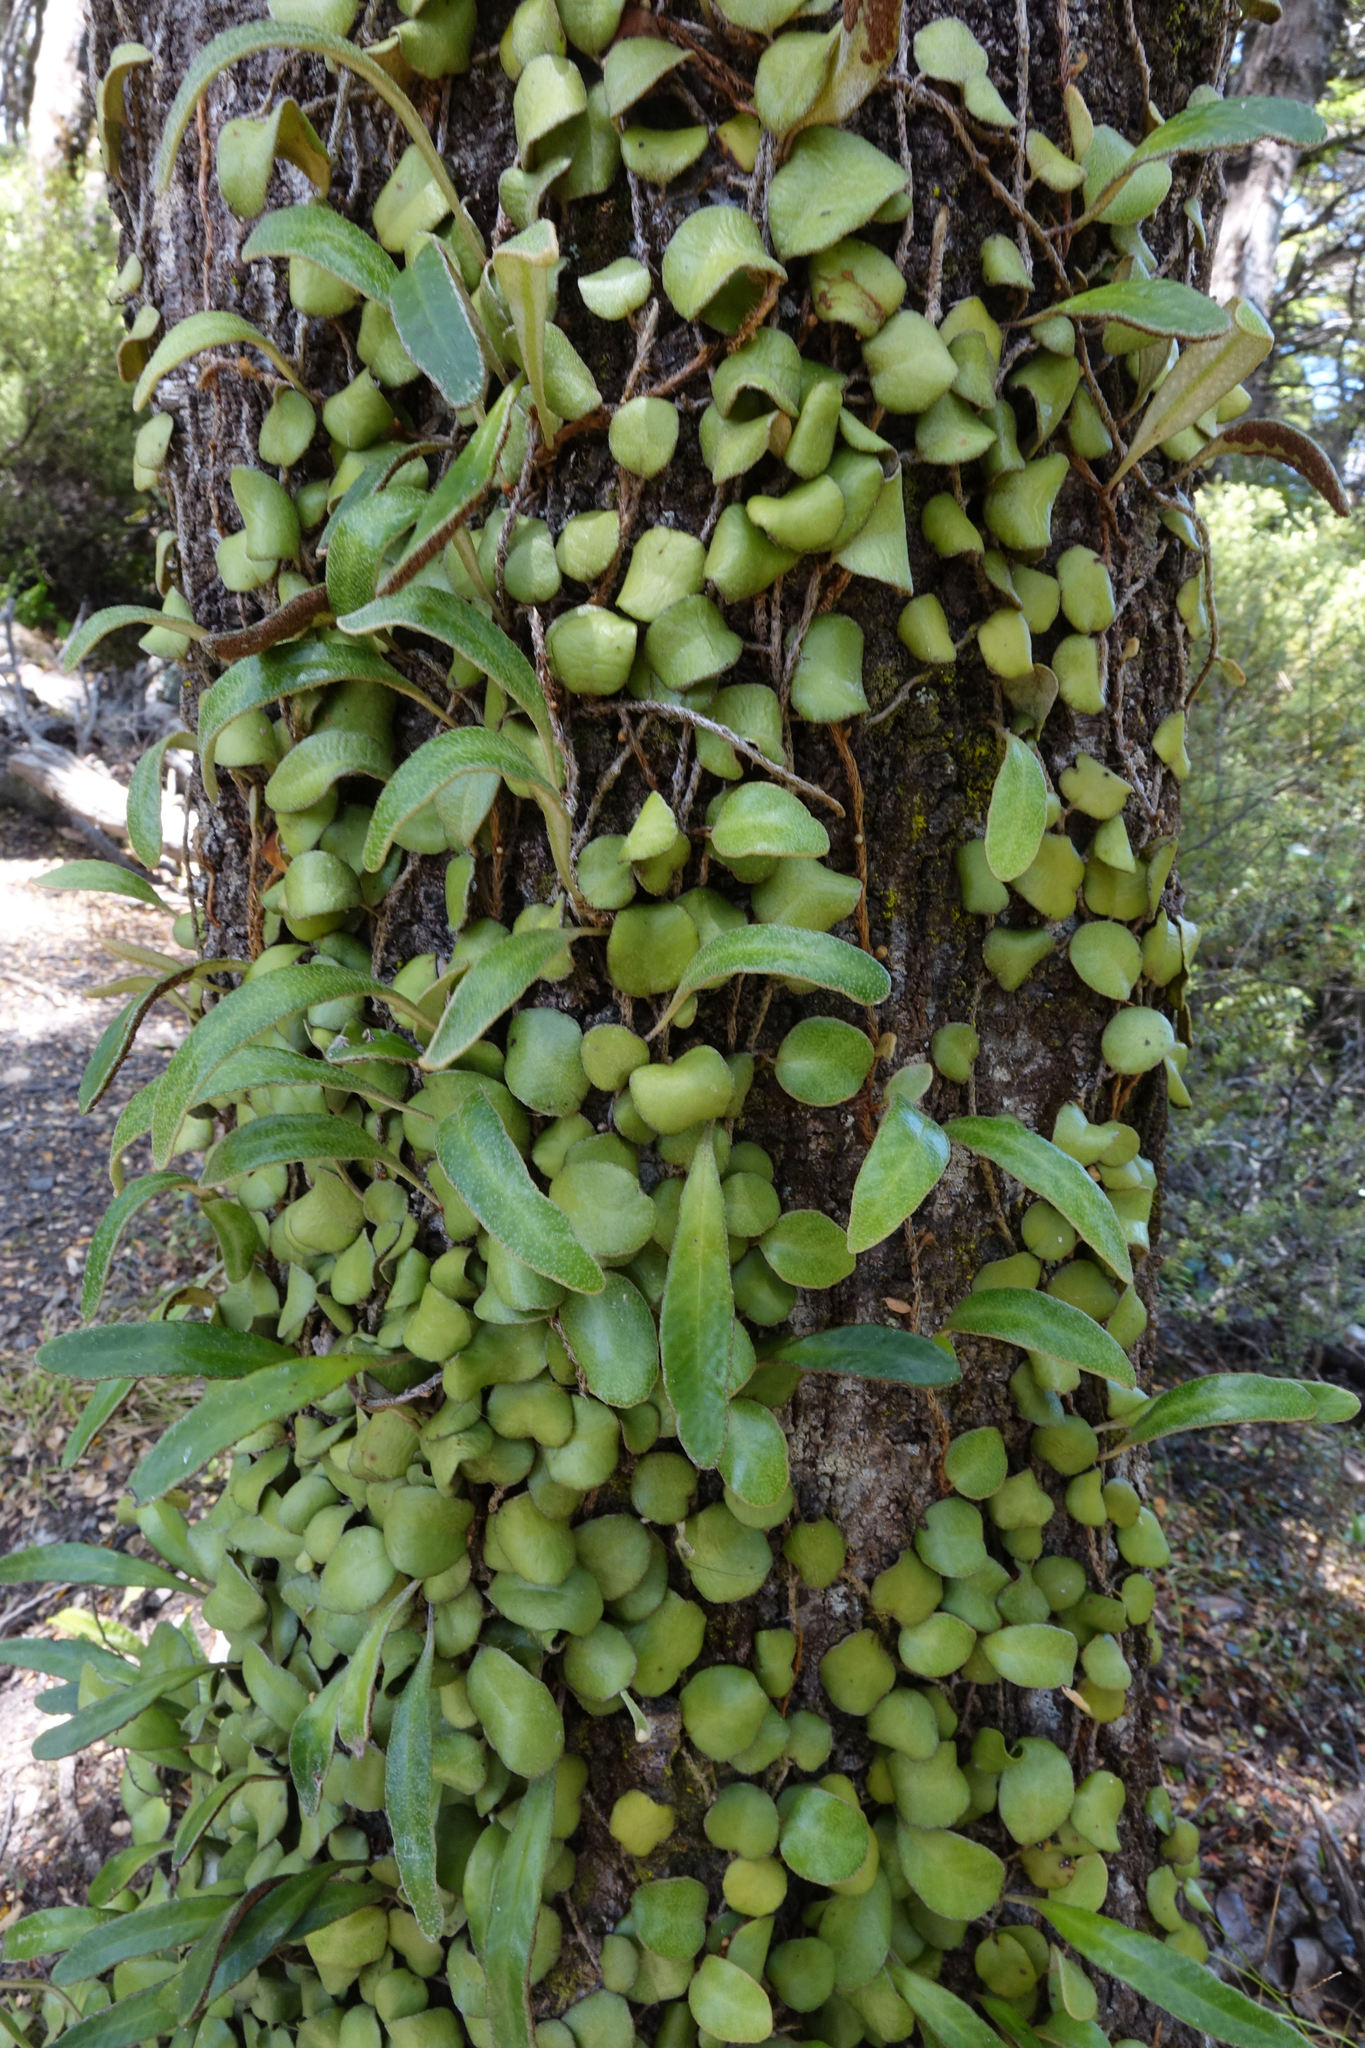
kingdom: Plantae
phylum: Tracheophyta
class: Polypodiopsida
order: Polypodiales
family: Polypodiaceae
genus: Pyrrosia
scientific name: Pyrrosia eleagnifolia
